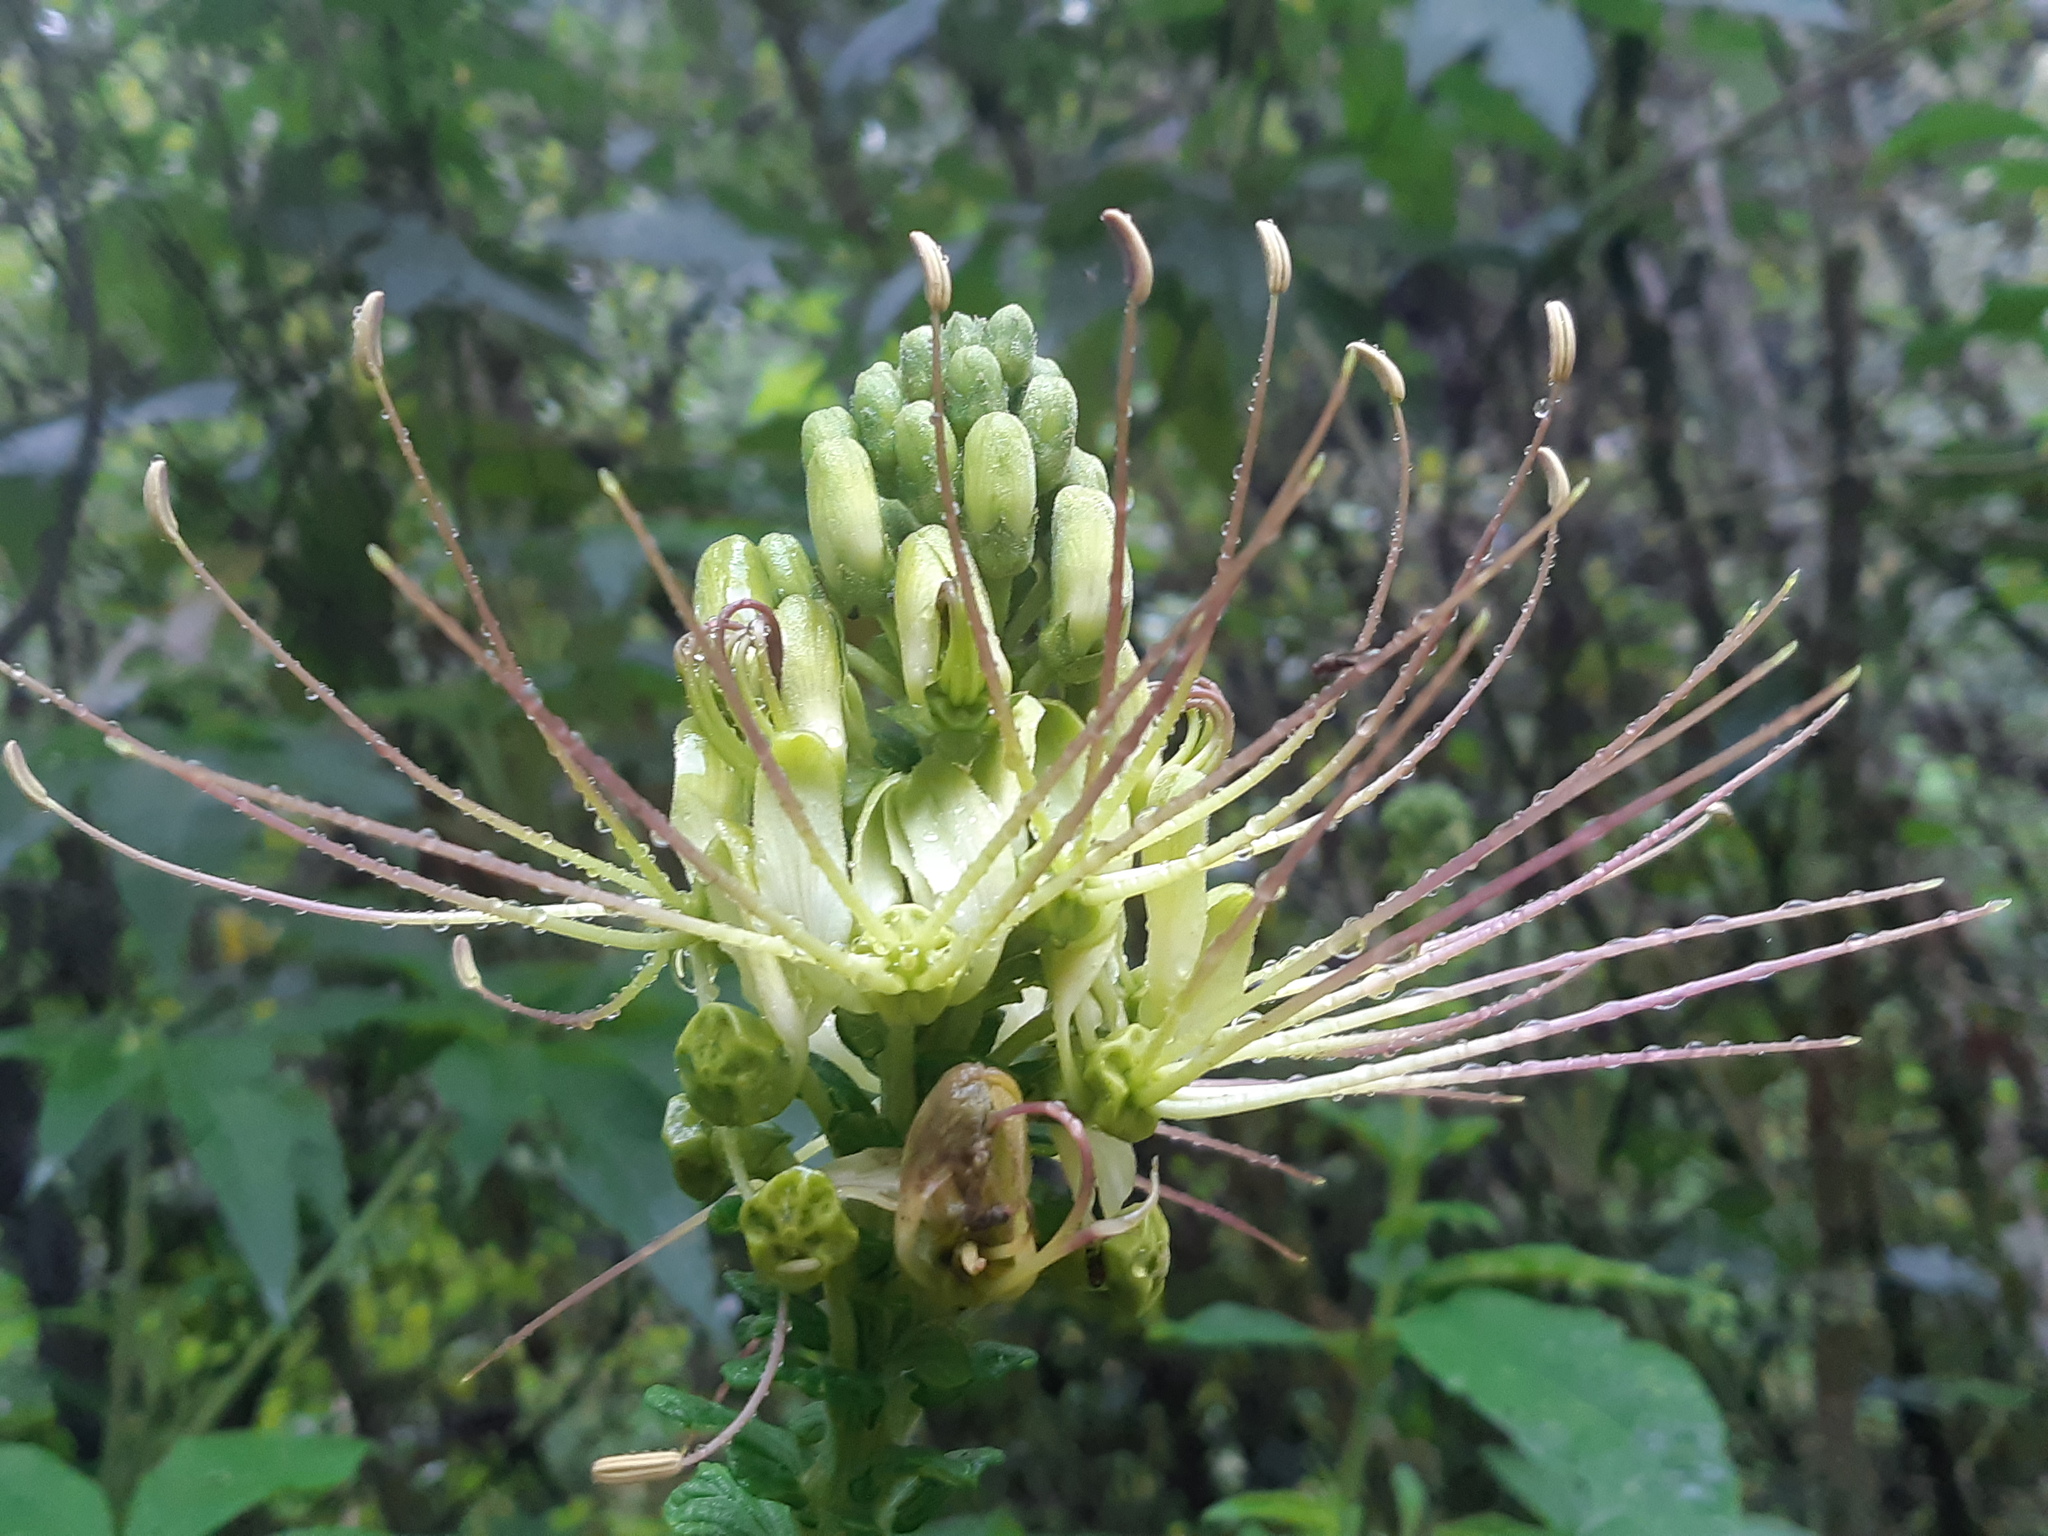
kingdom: Plantae
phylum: Tracheophyta
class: Magnoliopsida
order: Brassicales
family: Cleomaceae
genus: Andinocleome
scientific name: Andinocleome anomala
